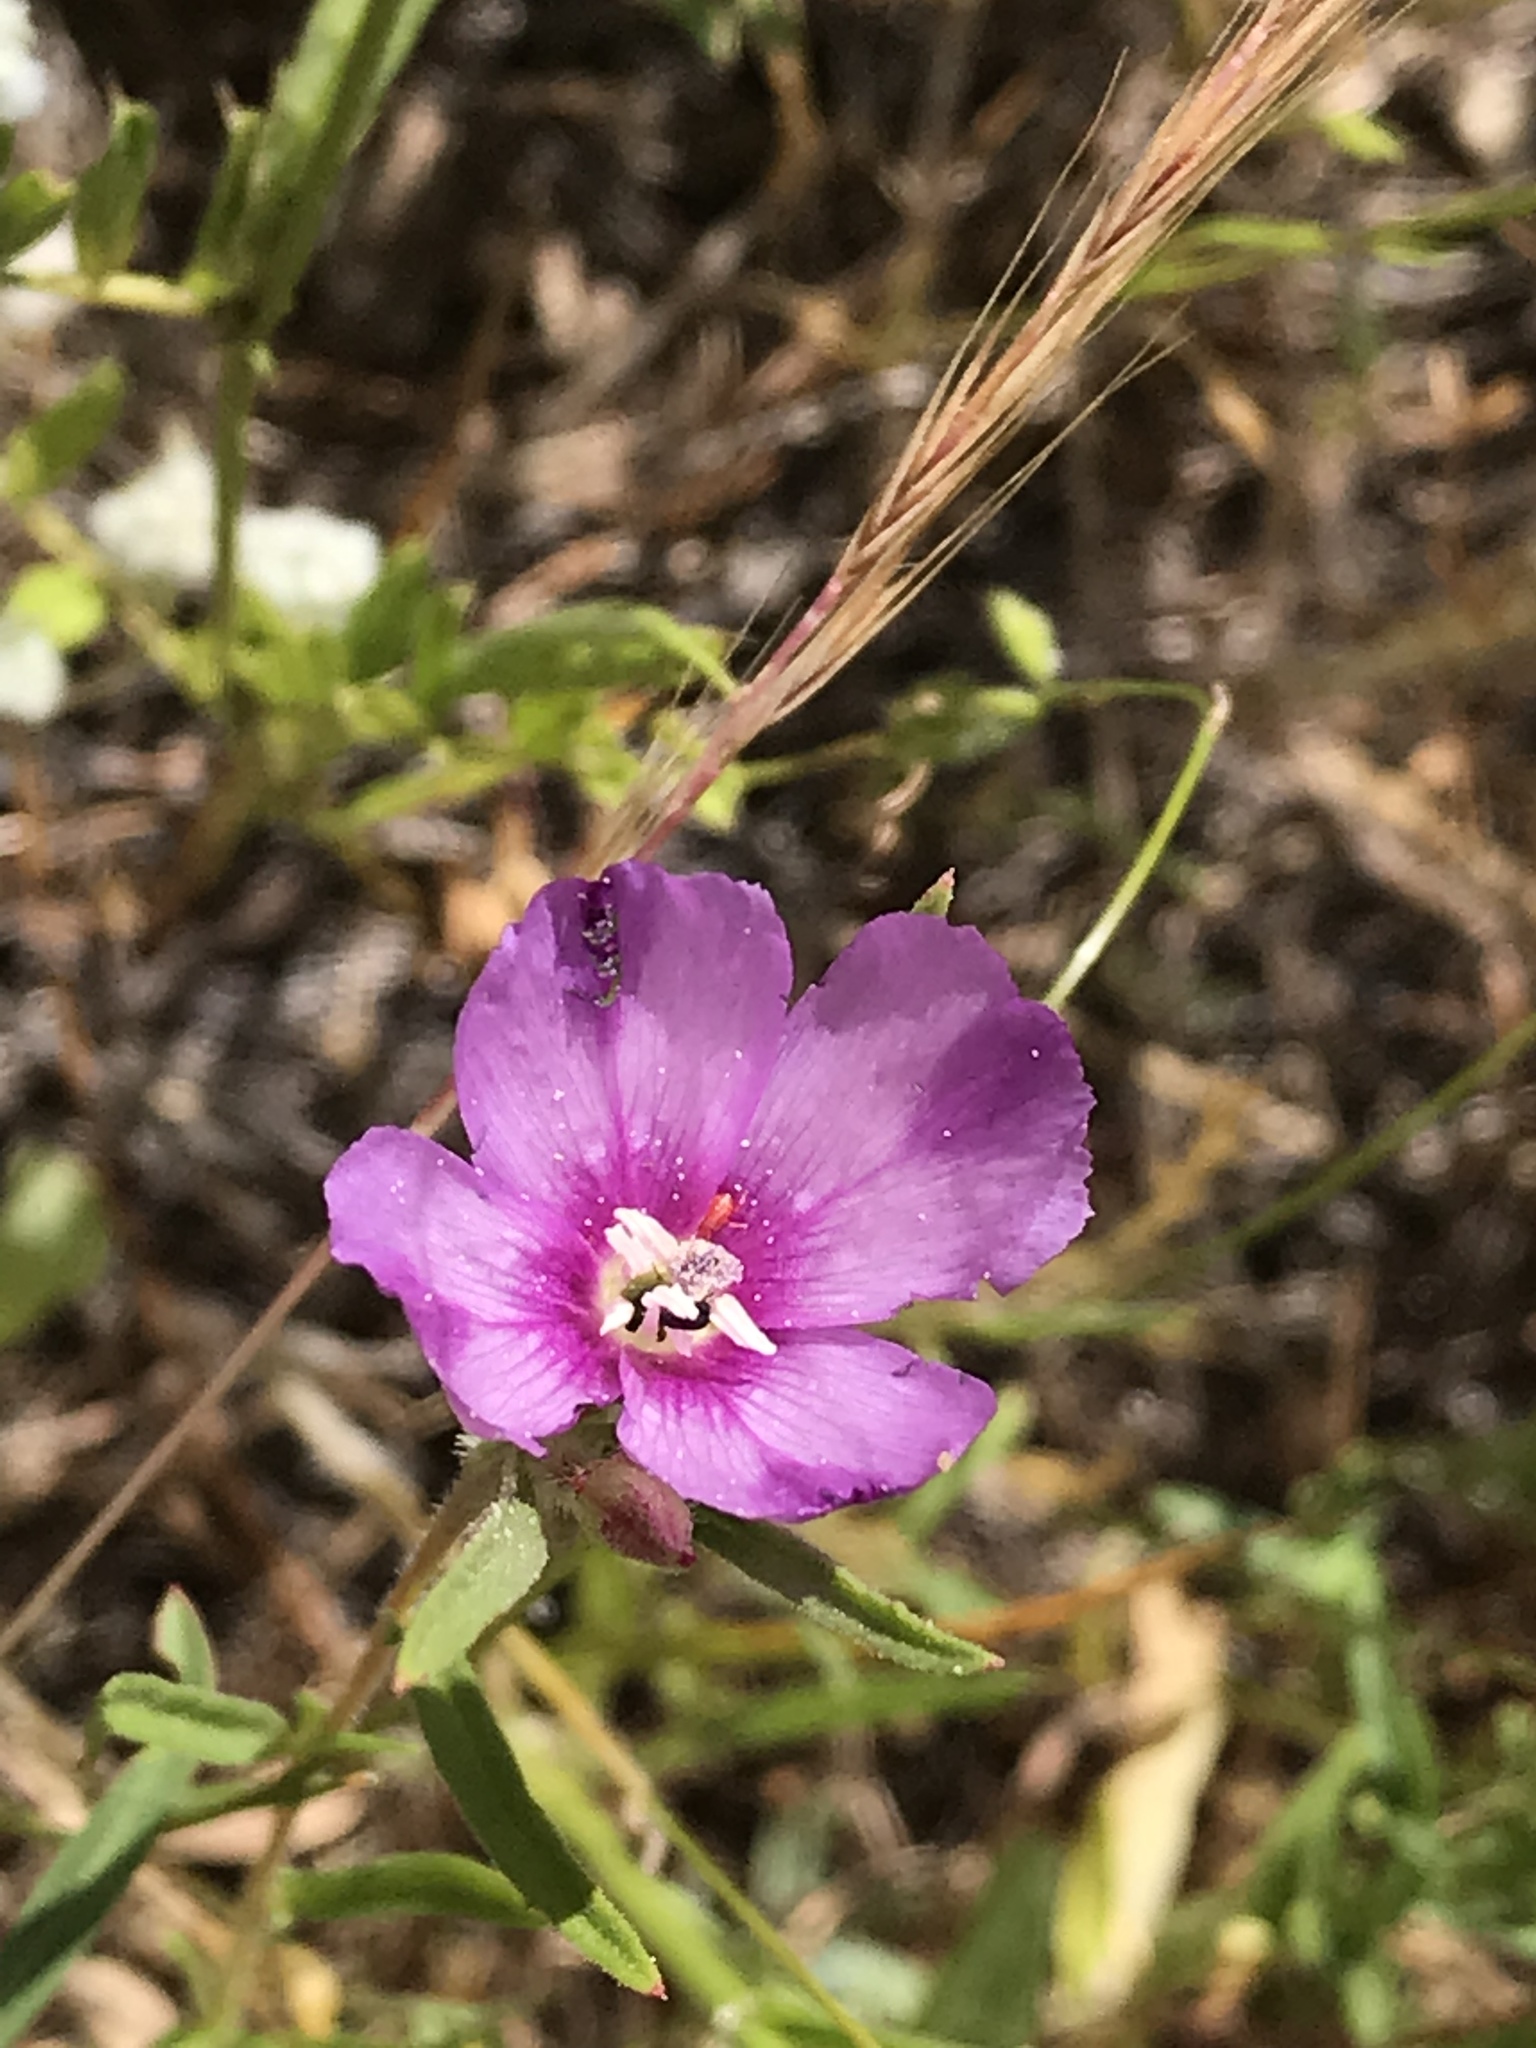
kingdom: Plantae
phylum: Tracheophyta
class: Magnoliopsida
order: Myrtales
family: Onagraceae
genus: Clarkia
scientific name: Clarkia purpurea
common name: Purple clarkia
